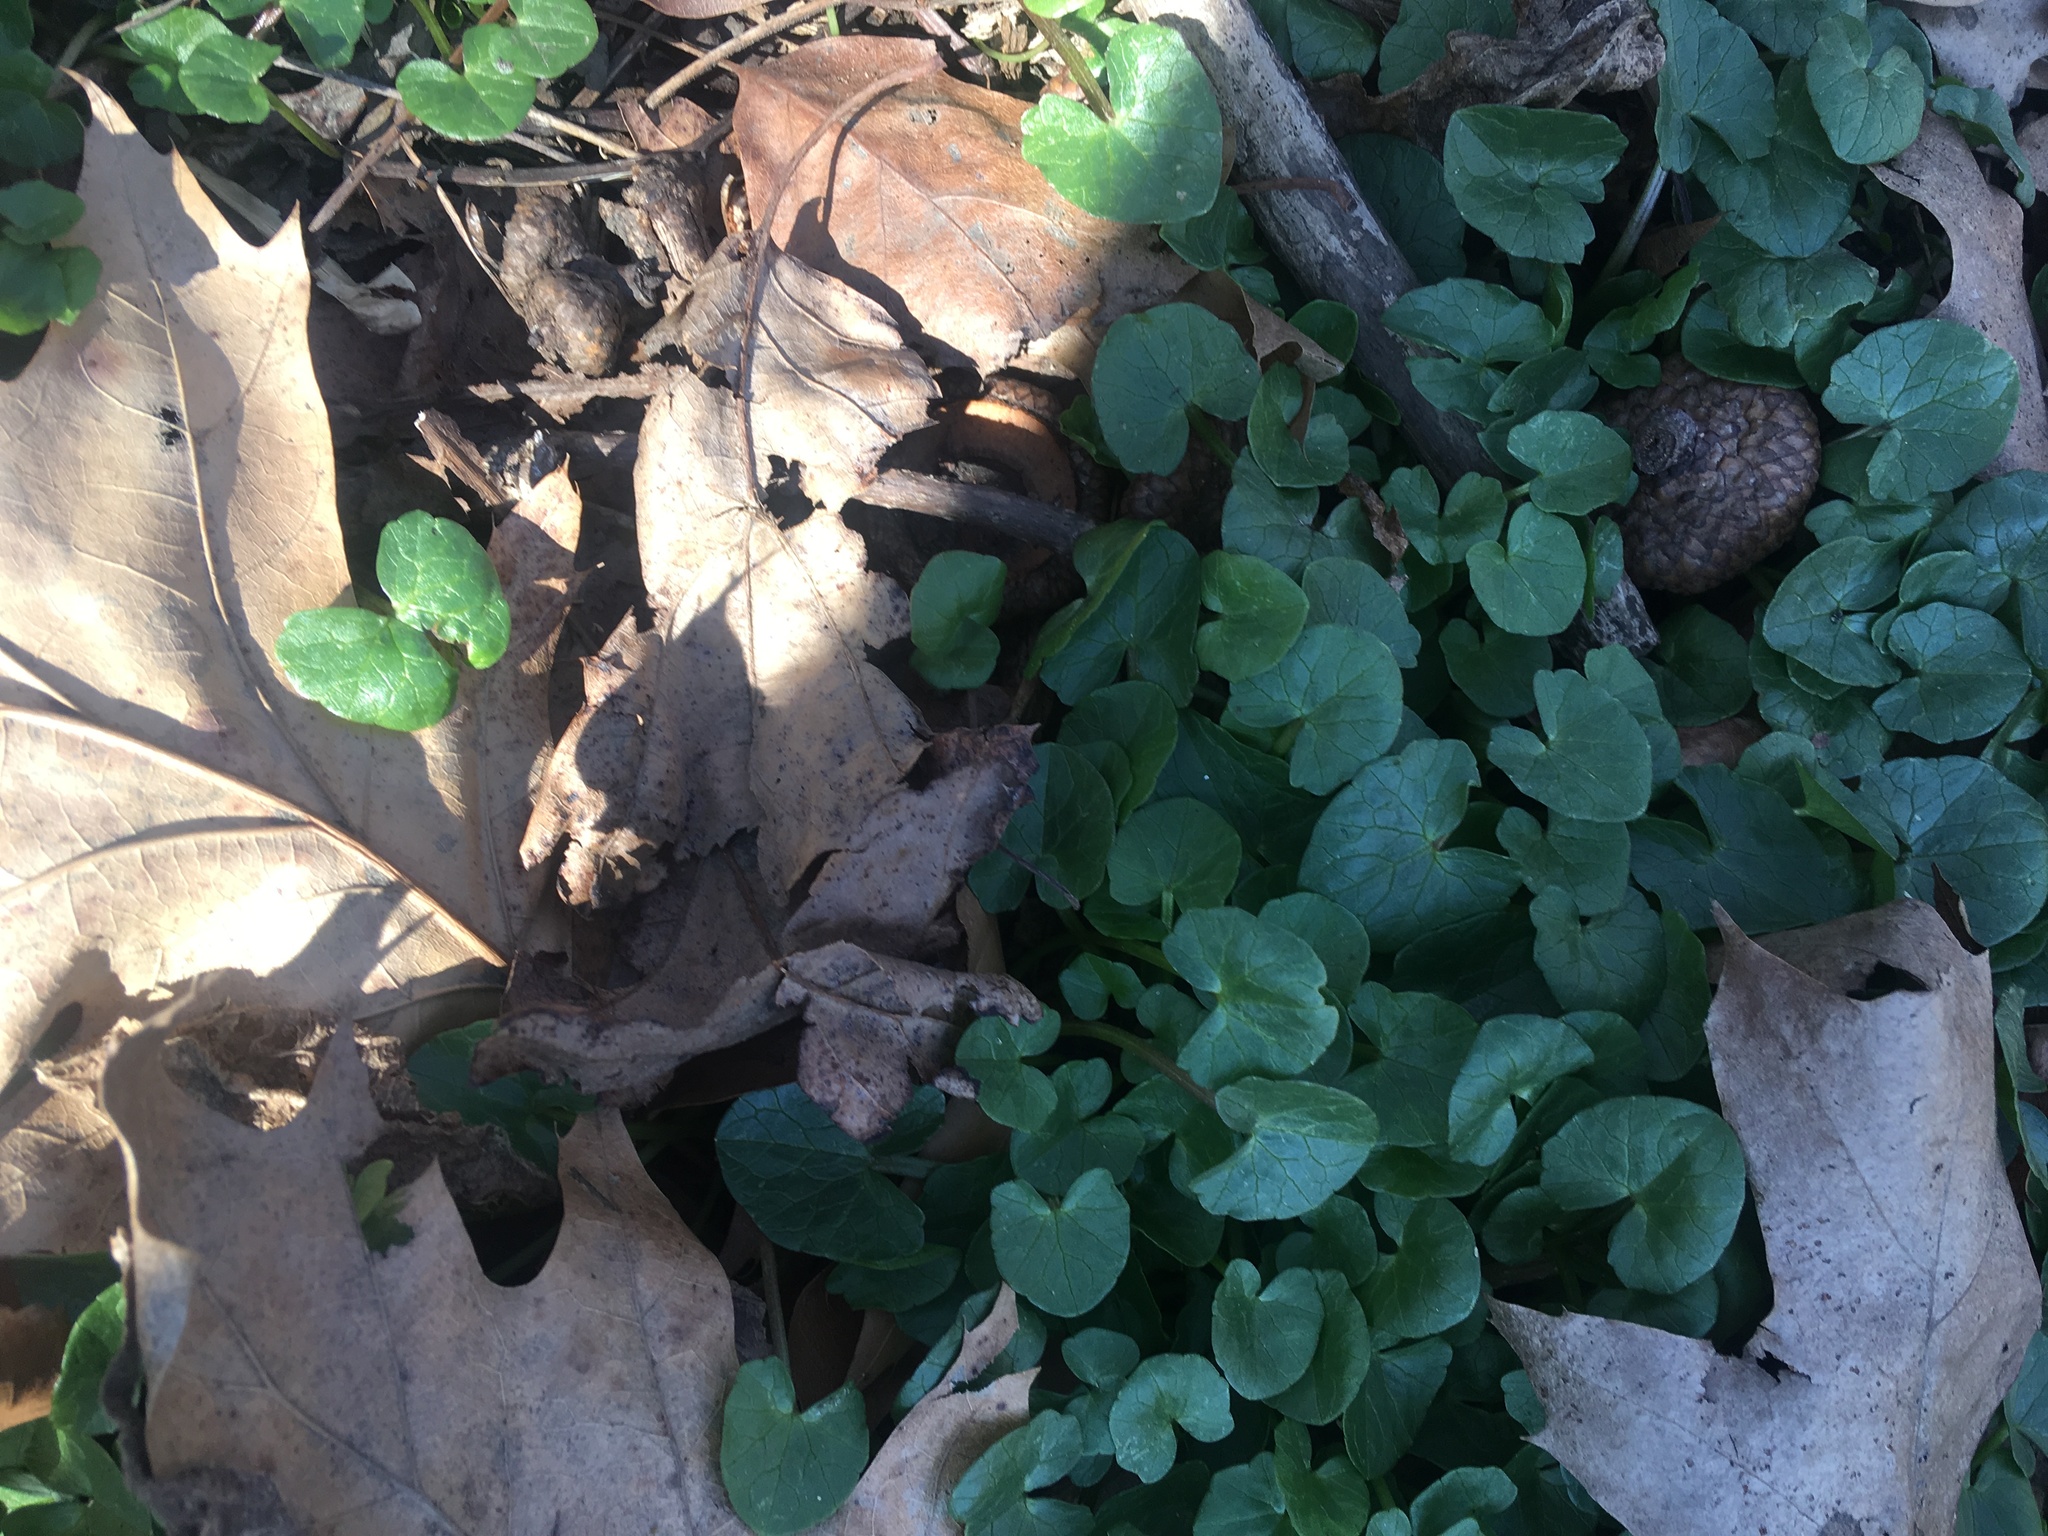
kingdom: Plantae
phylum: Tracheophyta
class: Magnoliopsida
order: Ranunculales
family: Ranunculaceae
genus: Ficaria
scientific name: Ficaria verna
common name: Lesser celandine
